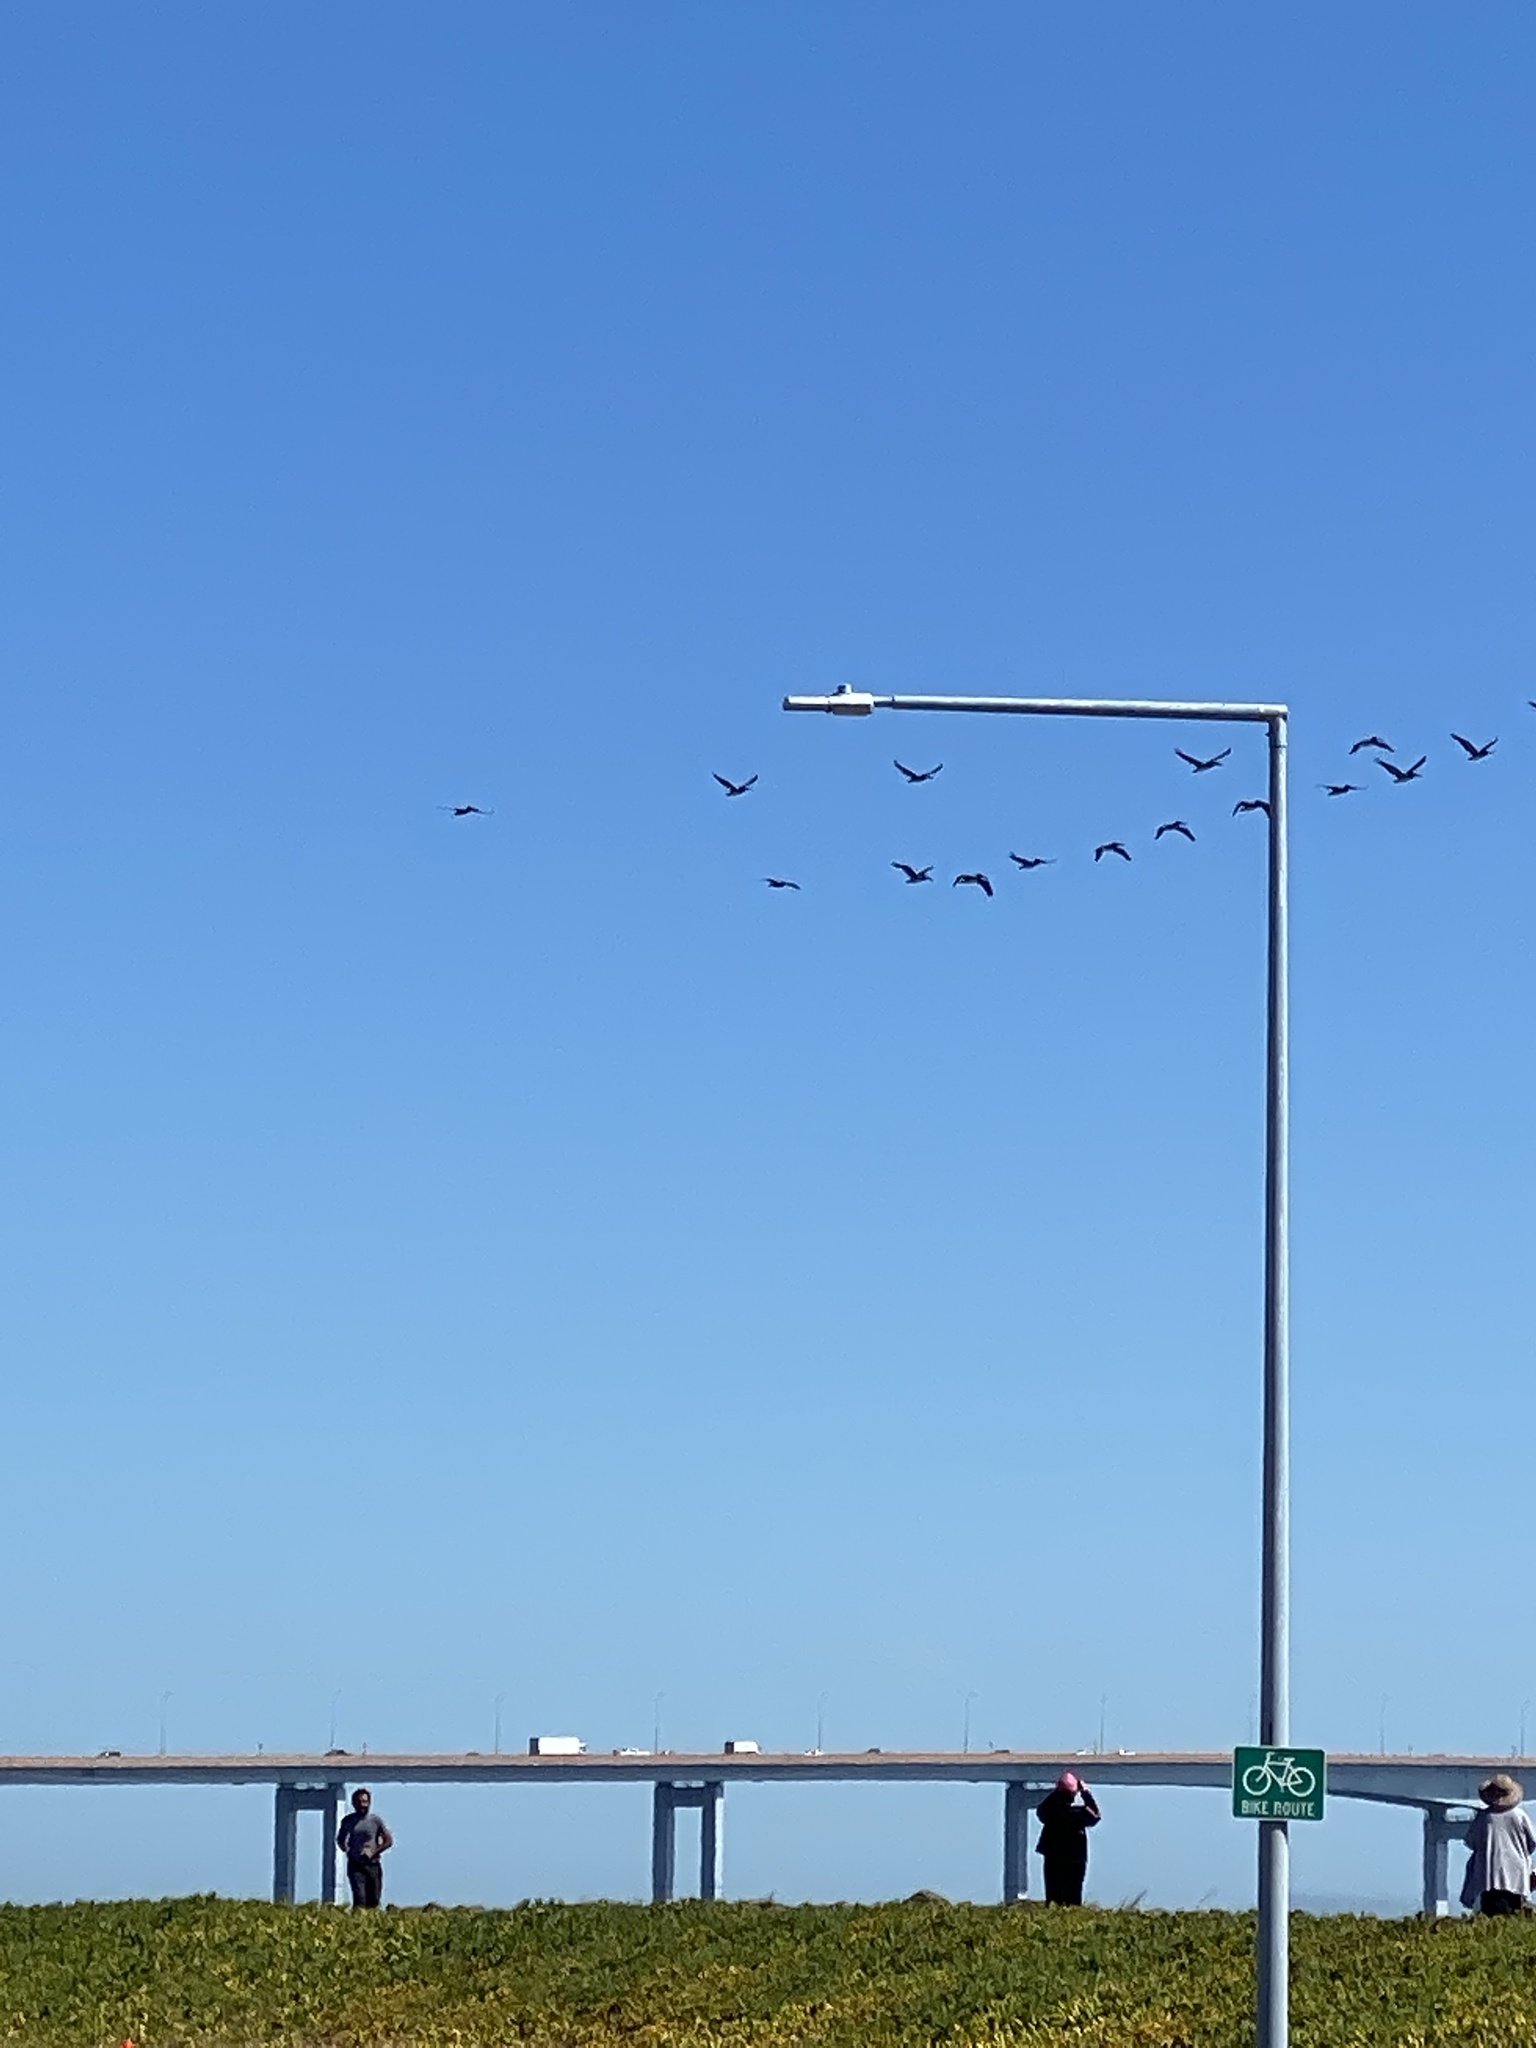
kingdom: Animalia
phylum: Chordata
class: Aves
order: Pelecaniformes
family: Pelecanidae
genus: Pelecanus
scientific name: Pelecanus occidentalis
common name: Brown pelican
